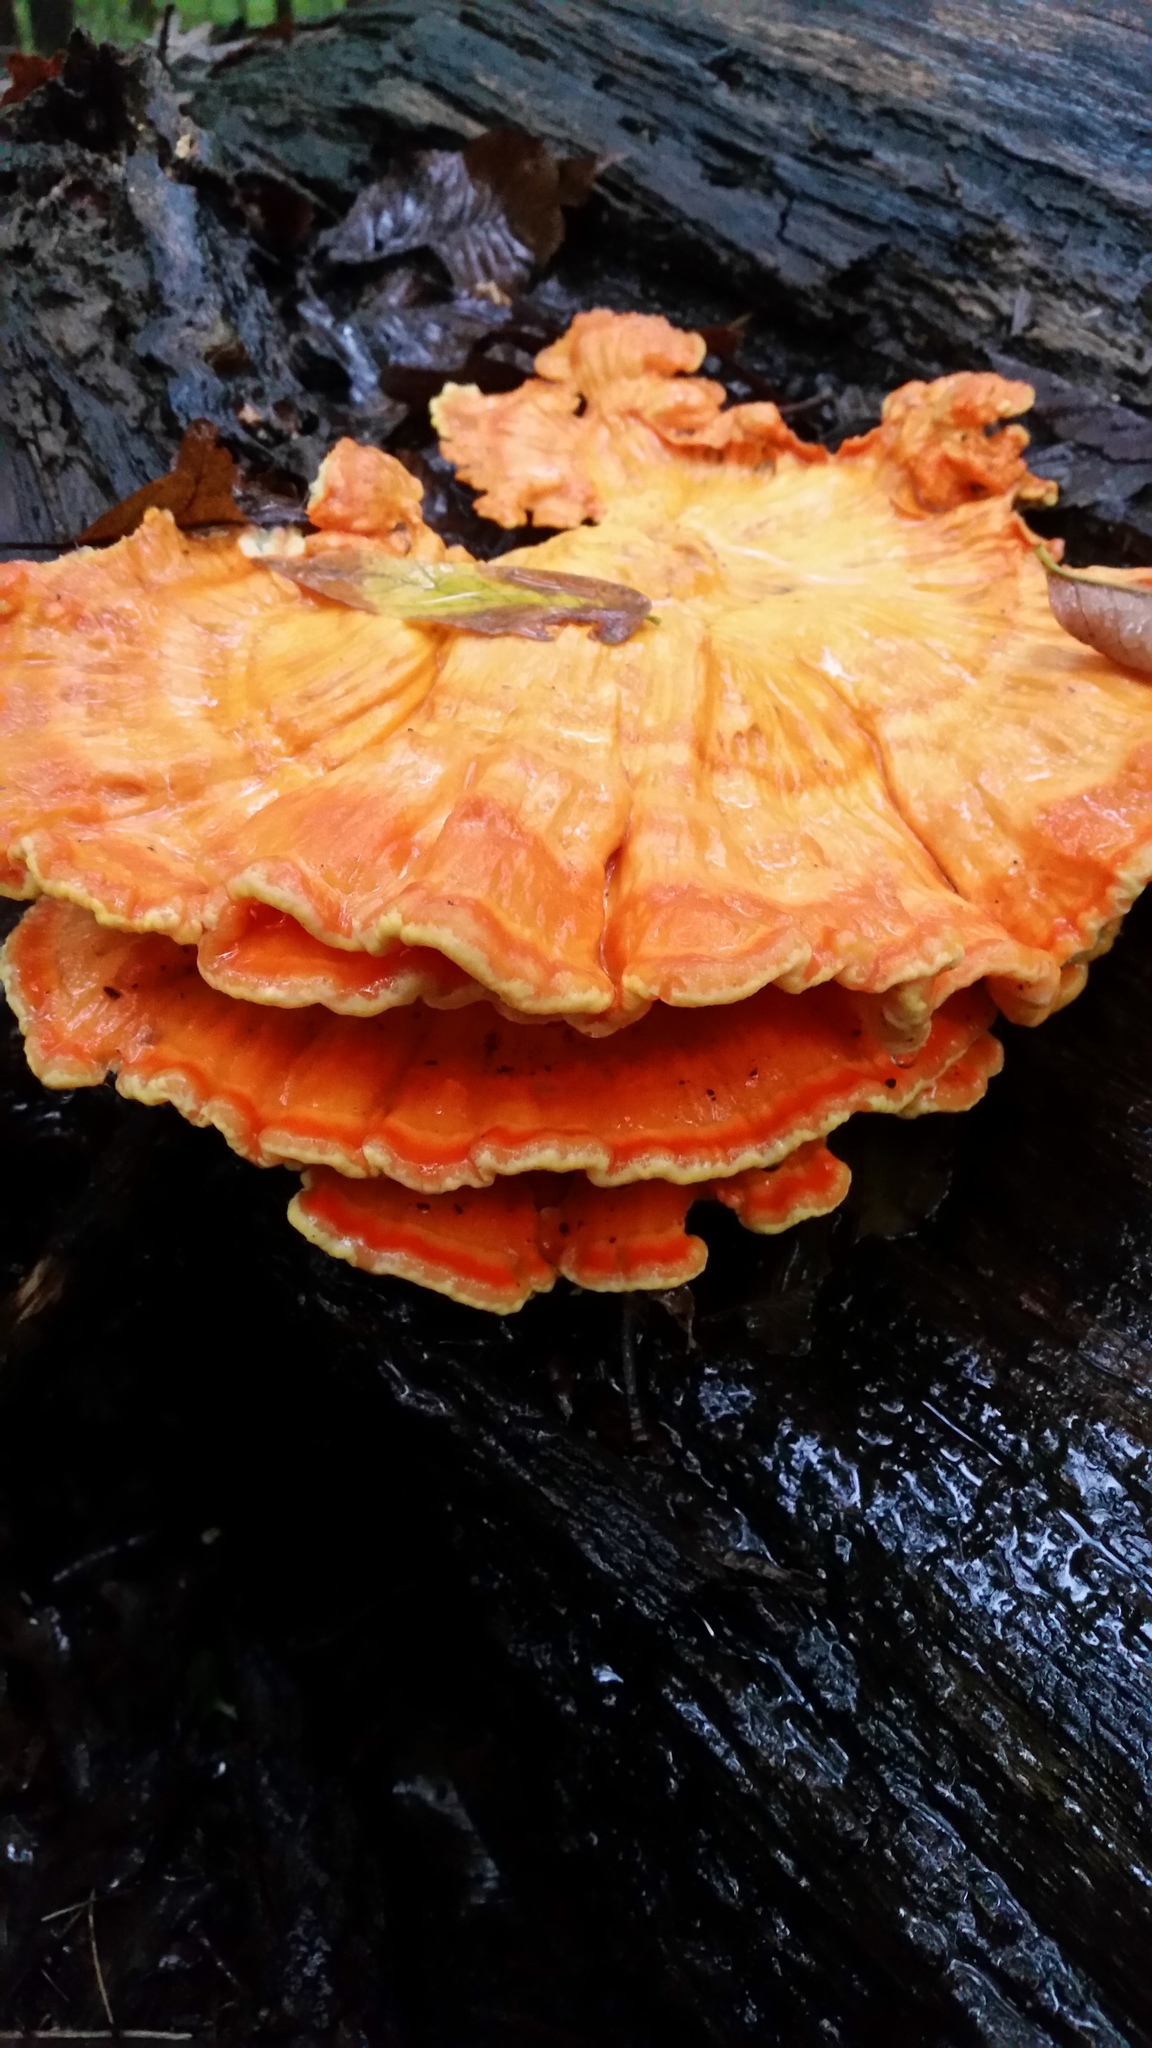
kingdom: Fungi
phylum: Basidiomycota
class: Agaricomycetes
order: Polyporales
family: Laetiporaceae
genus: Laetiporus
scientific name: Laetiporus sulphureus
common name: Chicken of the woods
